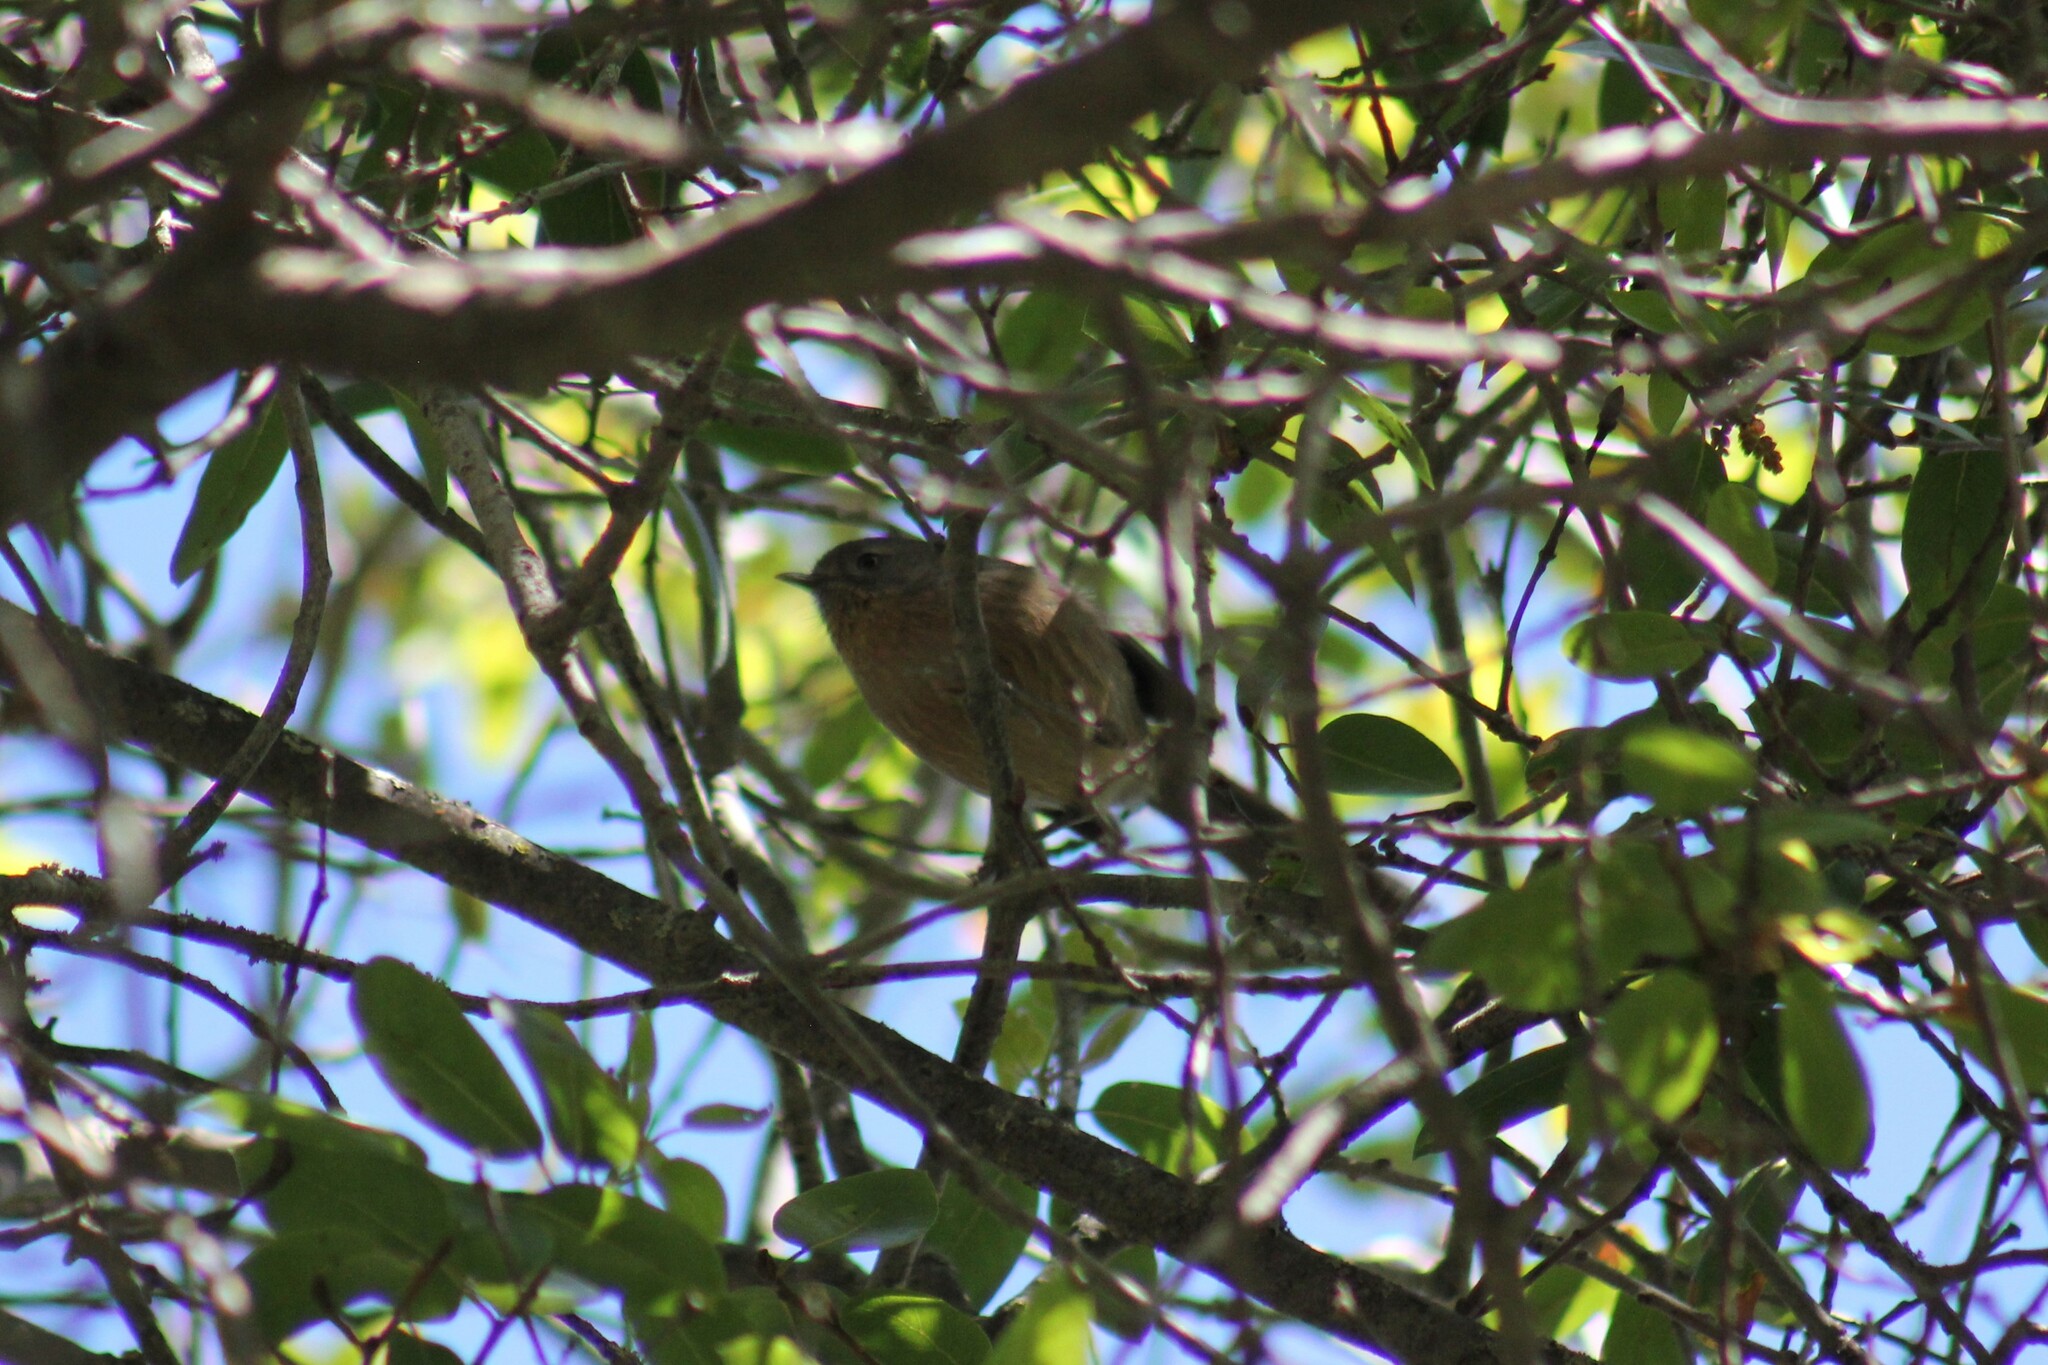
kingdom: Animalia
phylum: Chordata
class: Aves
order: Passeriformes
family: Sylviidae
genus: Chamaea
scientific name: Chamaea fasciata
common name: Wrentit
